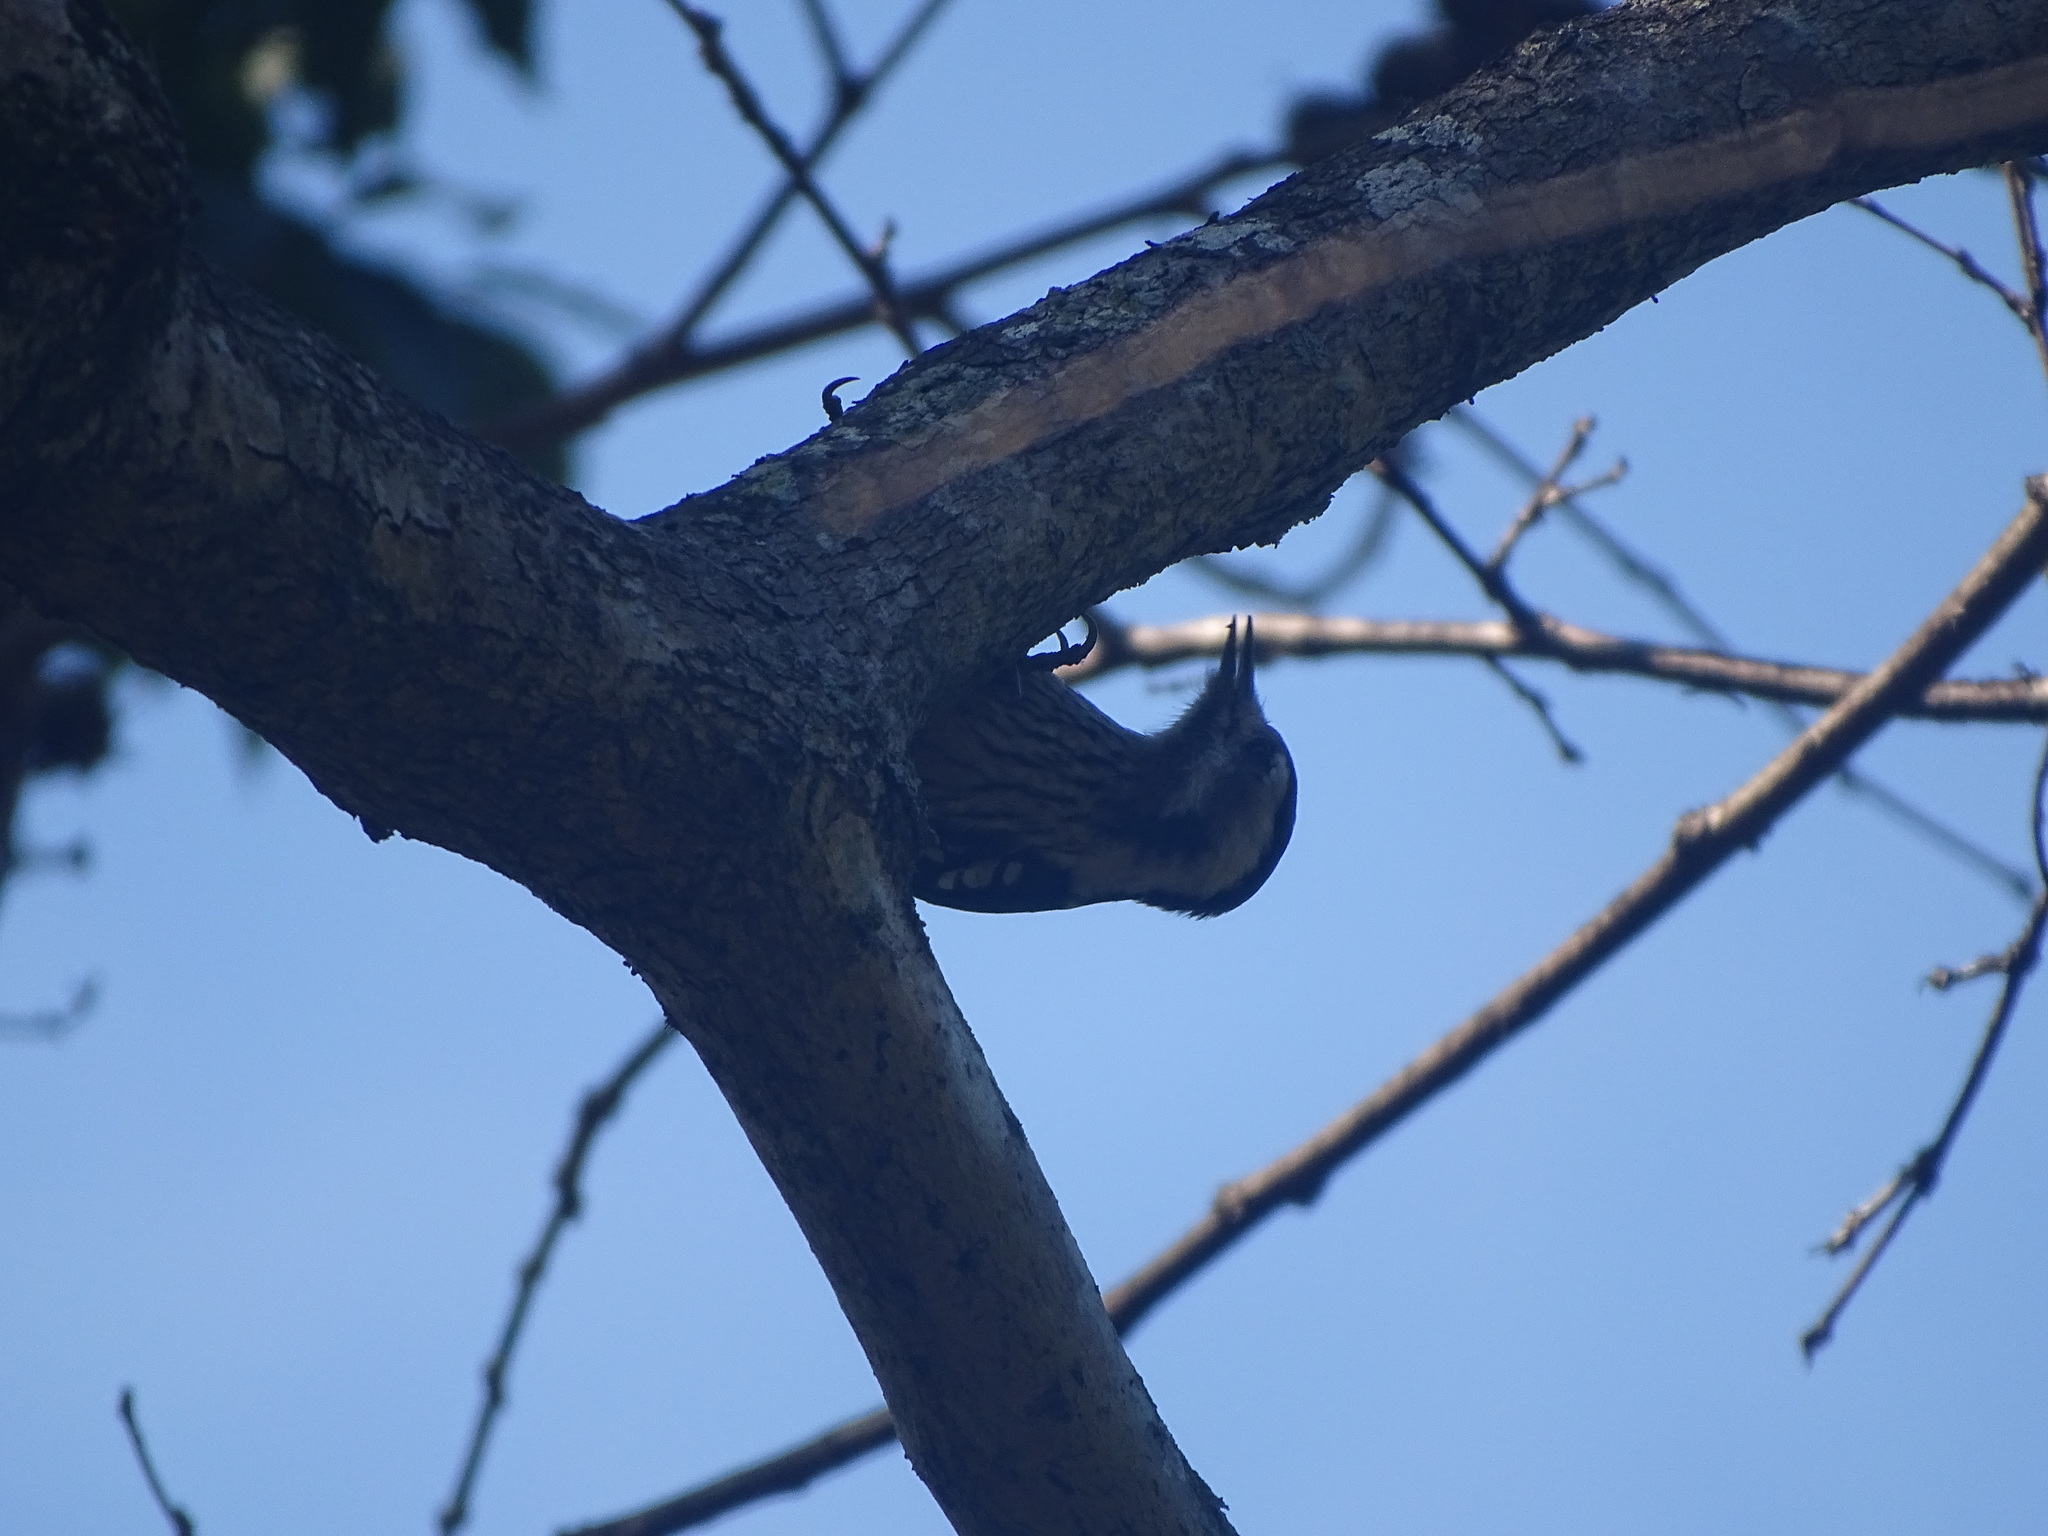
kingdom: Animalia
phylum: Chordata
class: Aves
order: Piciformes
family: Picidae
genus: Yungipicus
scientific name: Yungipicus canicapillus
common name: Grey-capped pygmy woodpecker
